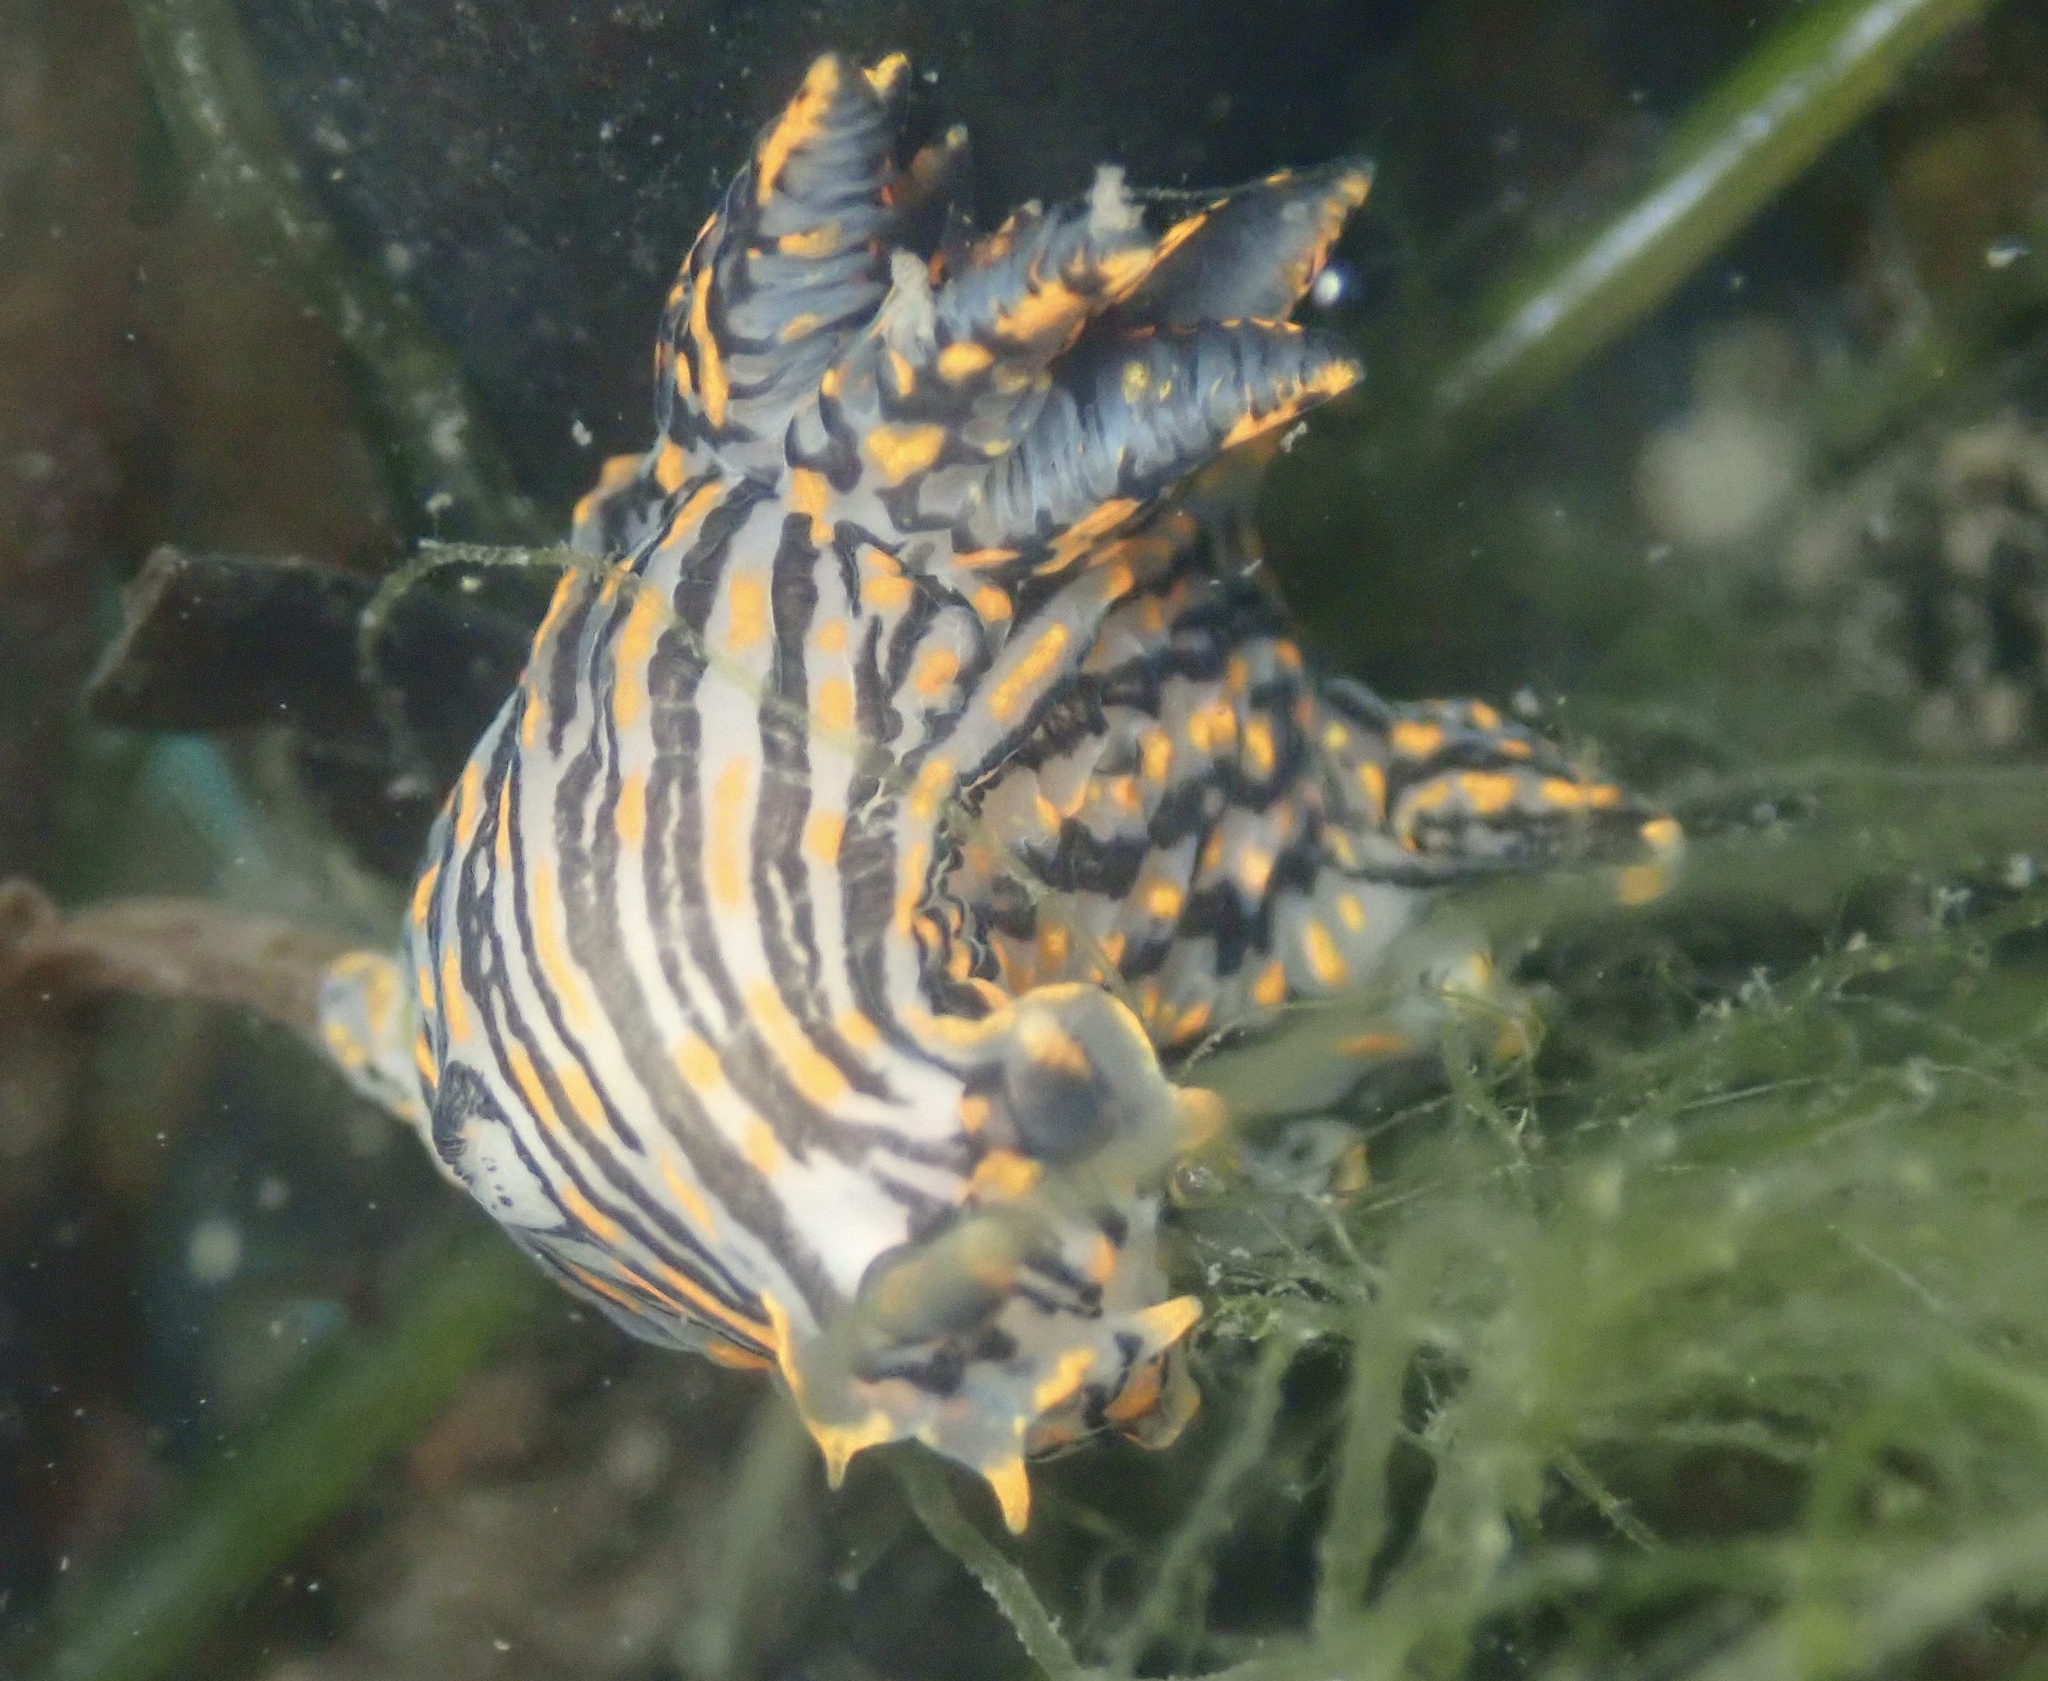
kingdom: Animalia
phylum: Mollusca
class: Gastropoda
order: Nudibranchia
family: Polyceridae
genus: Polycera
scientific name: Polycera atra
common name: Orange-spike polycera
